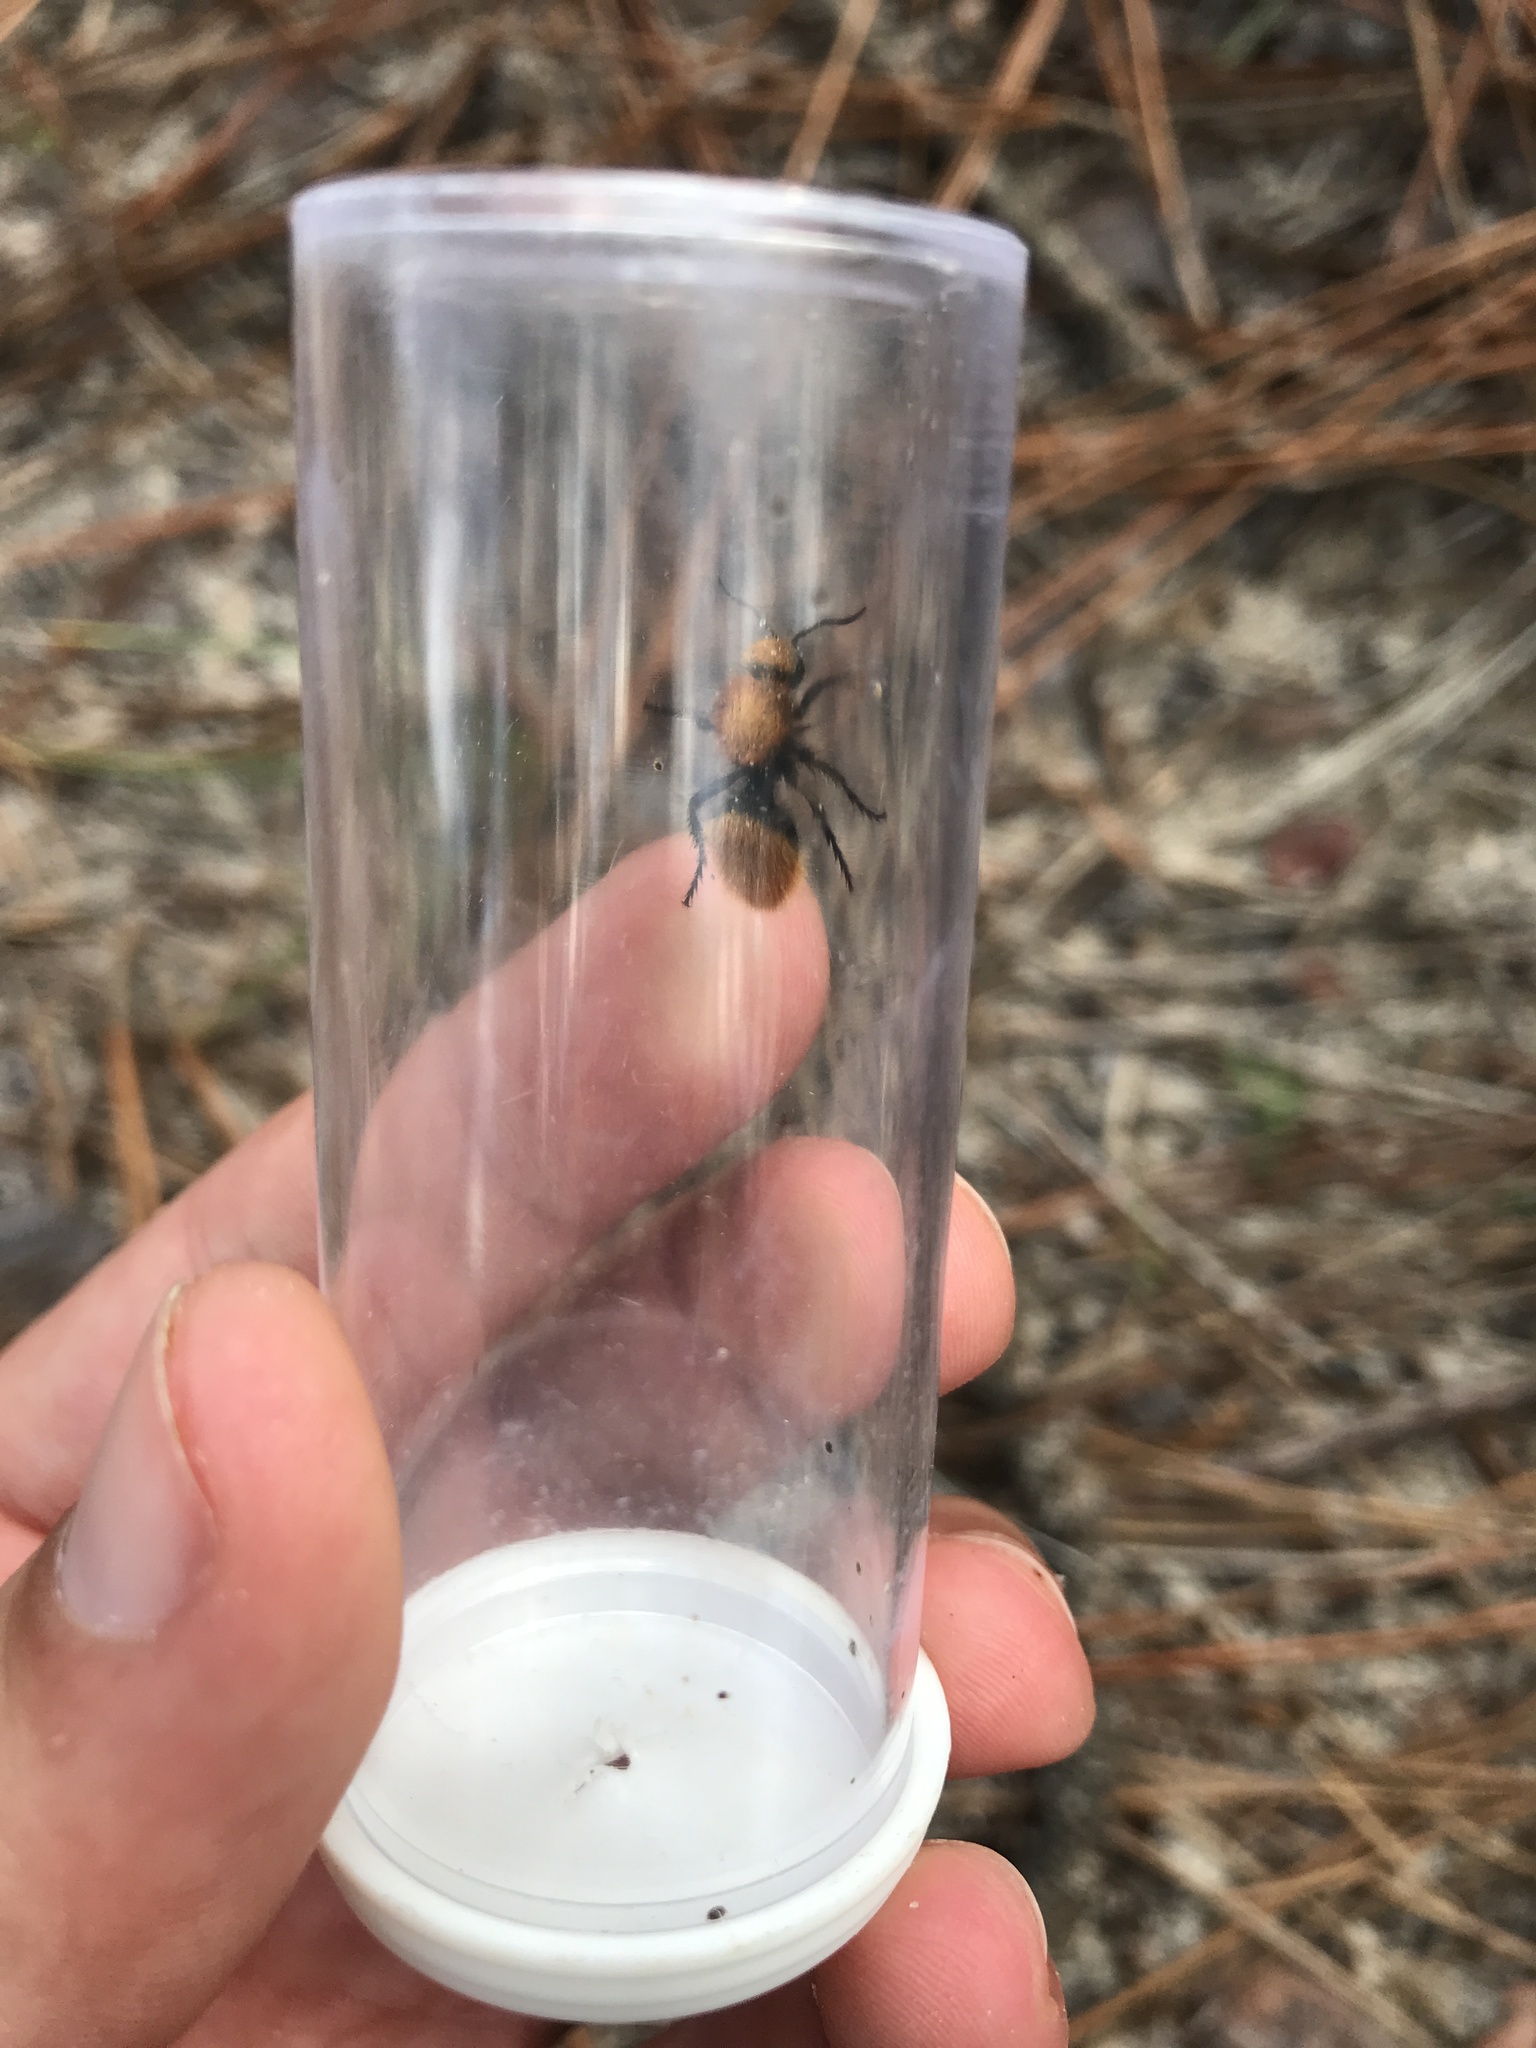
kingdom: Animalia
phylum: Arthropoda
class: Insecta
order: Hymenoptera
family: Mutillidae
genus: Dasymutilla
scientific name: Dasymutilla vestita
